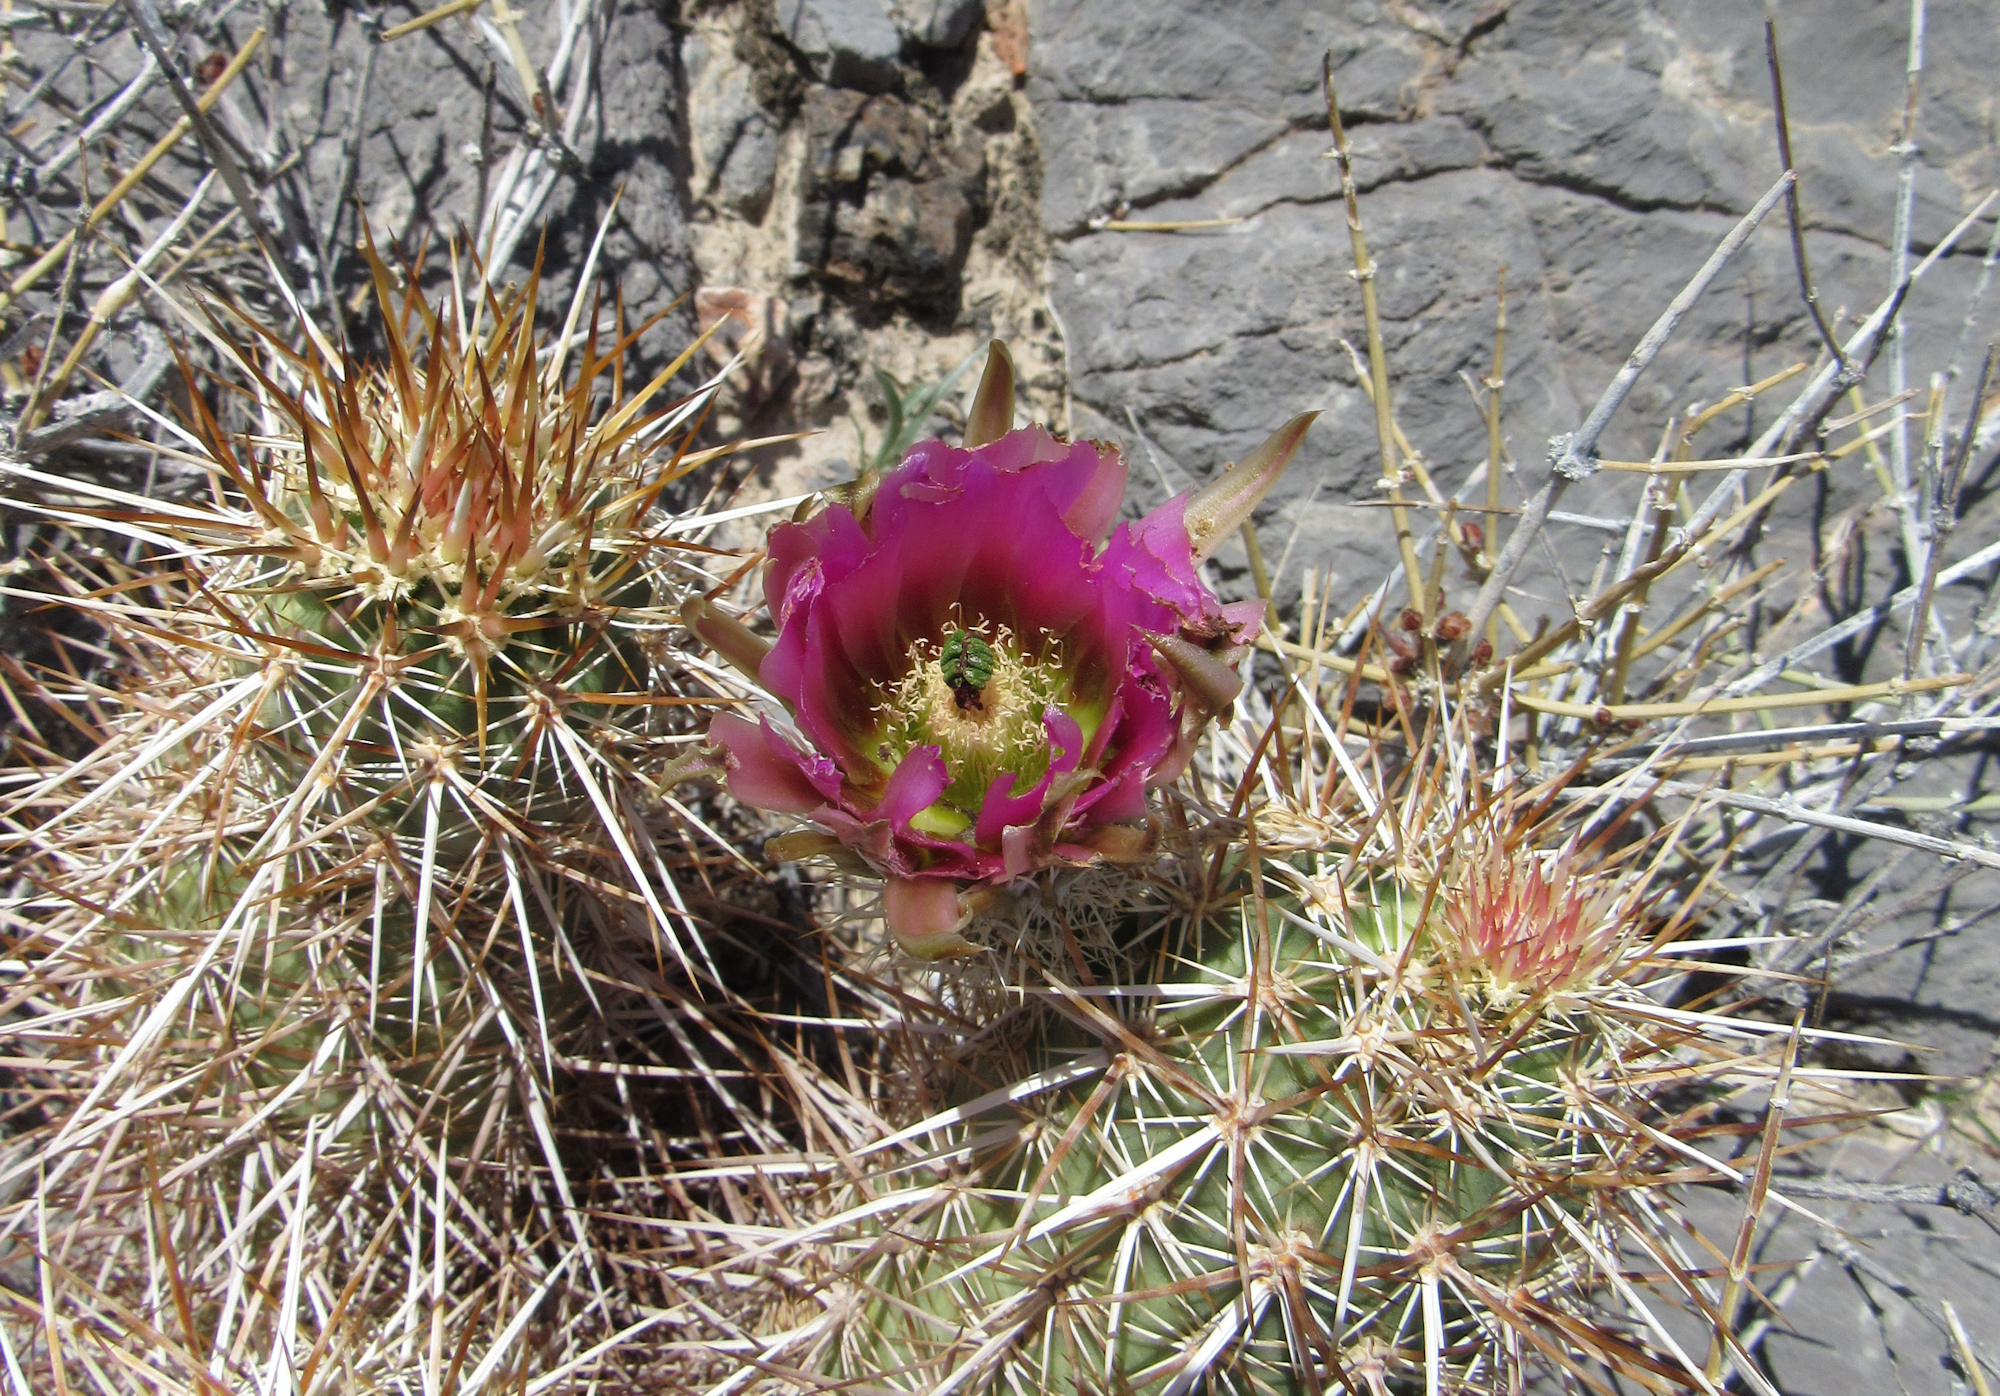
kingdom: Plantae
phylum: Tracheophyta
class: Magnoliopsida
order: Caryophyllales
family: Cactaceae
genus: Echinocereus
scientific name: Echinocereus engelmannii
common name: Engelmann's hedgehog cactus
